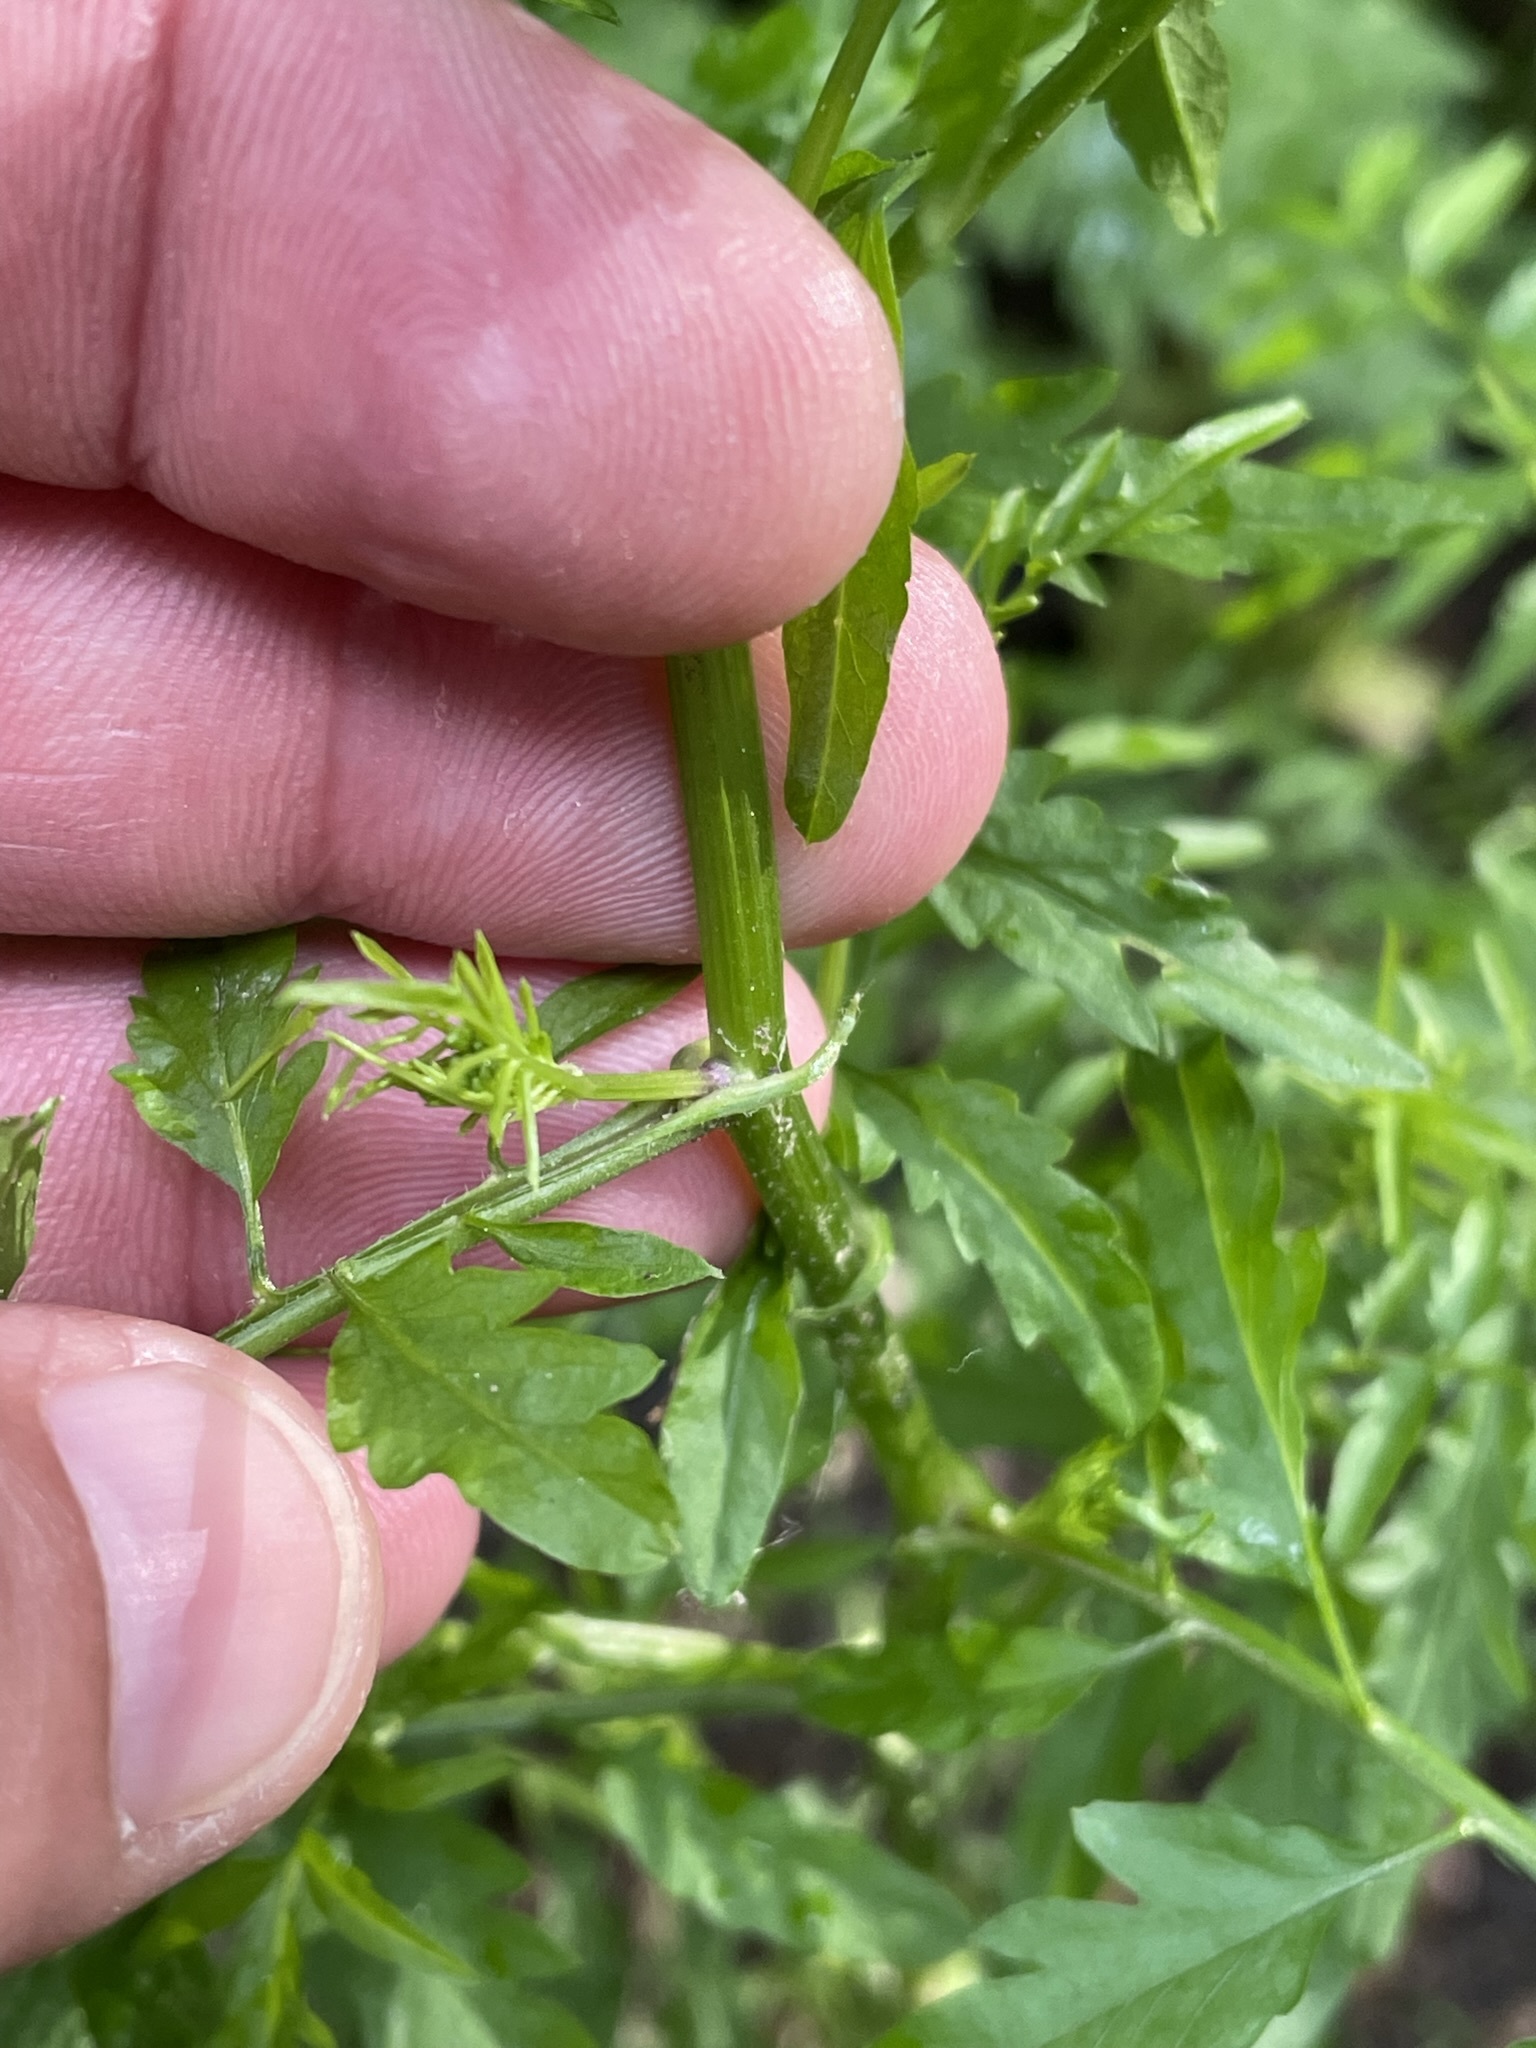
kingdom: Plantae
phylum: Tracheophyta
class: Magnoliopsida
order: Brassicales
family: Brassicaceae
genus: Cardamine
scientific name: Cardamine impatiens
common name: Narrow-leaved bitter-cress
